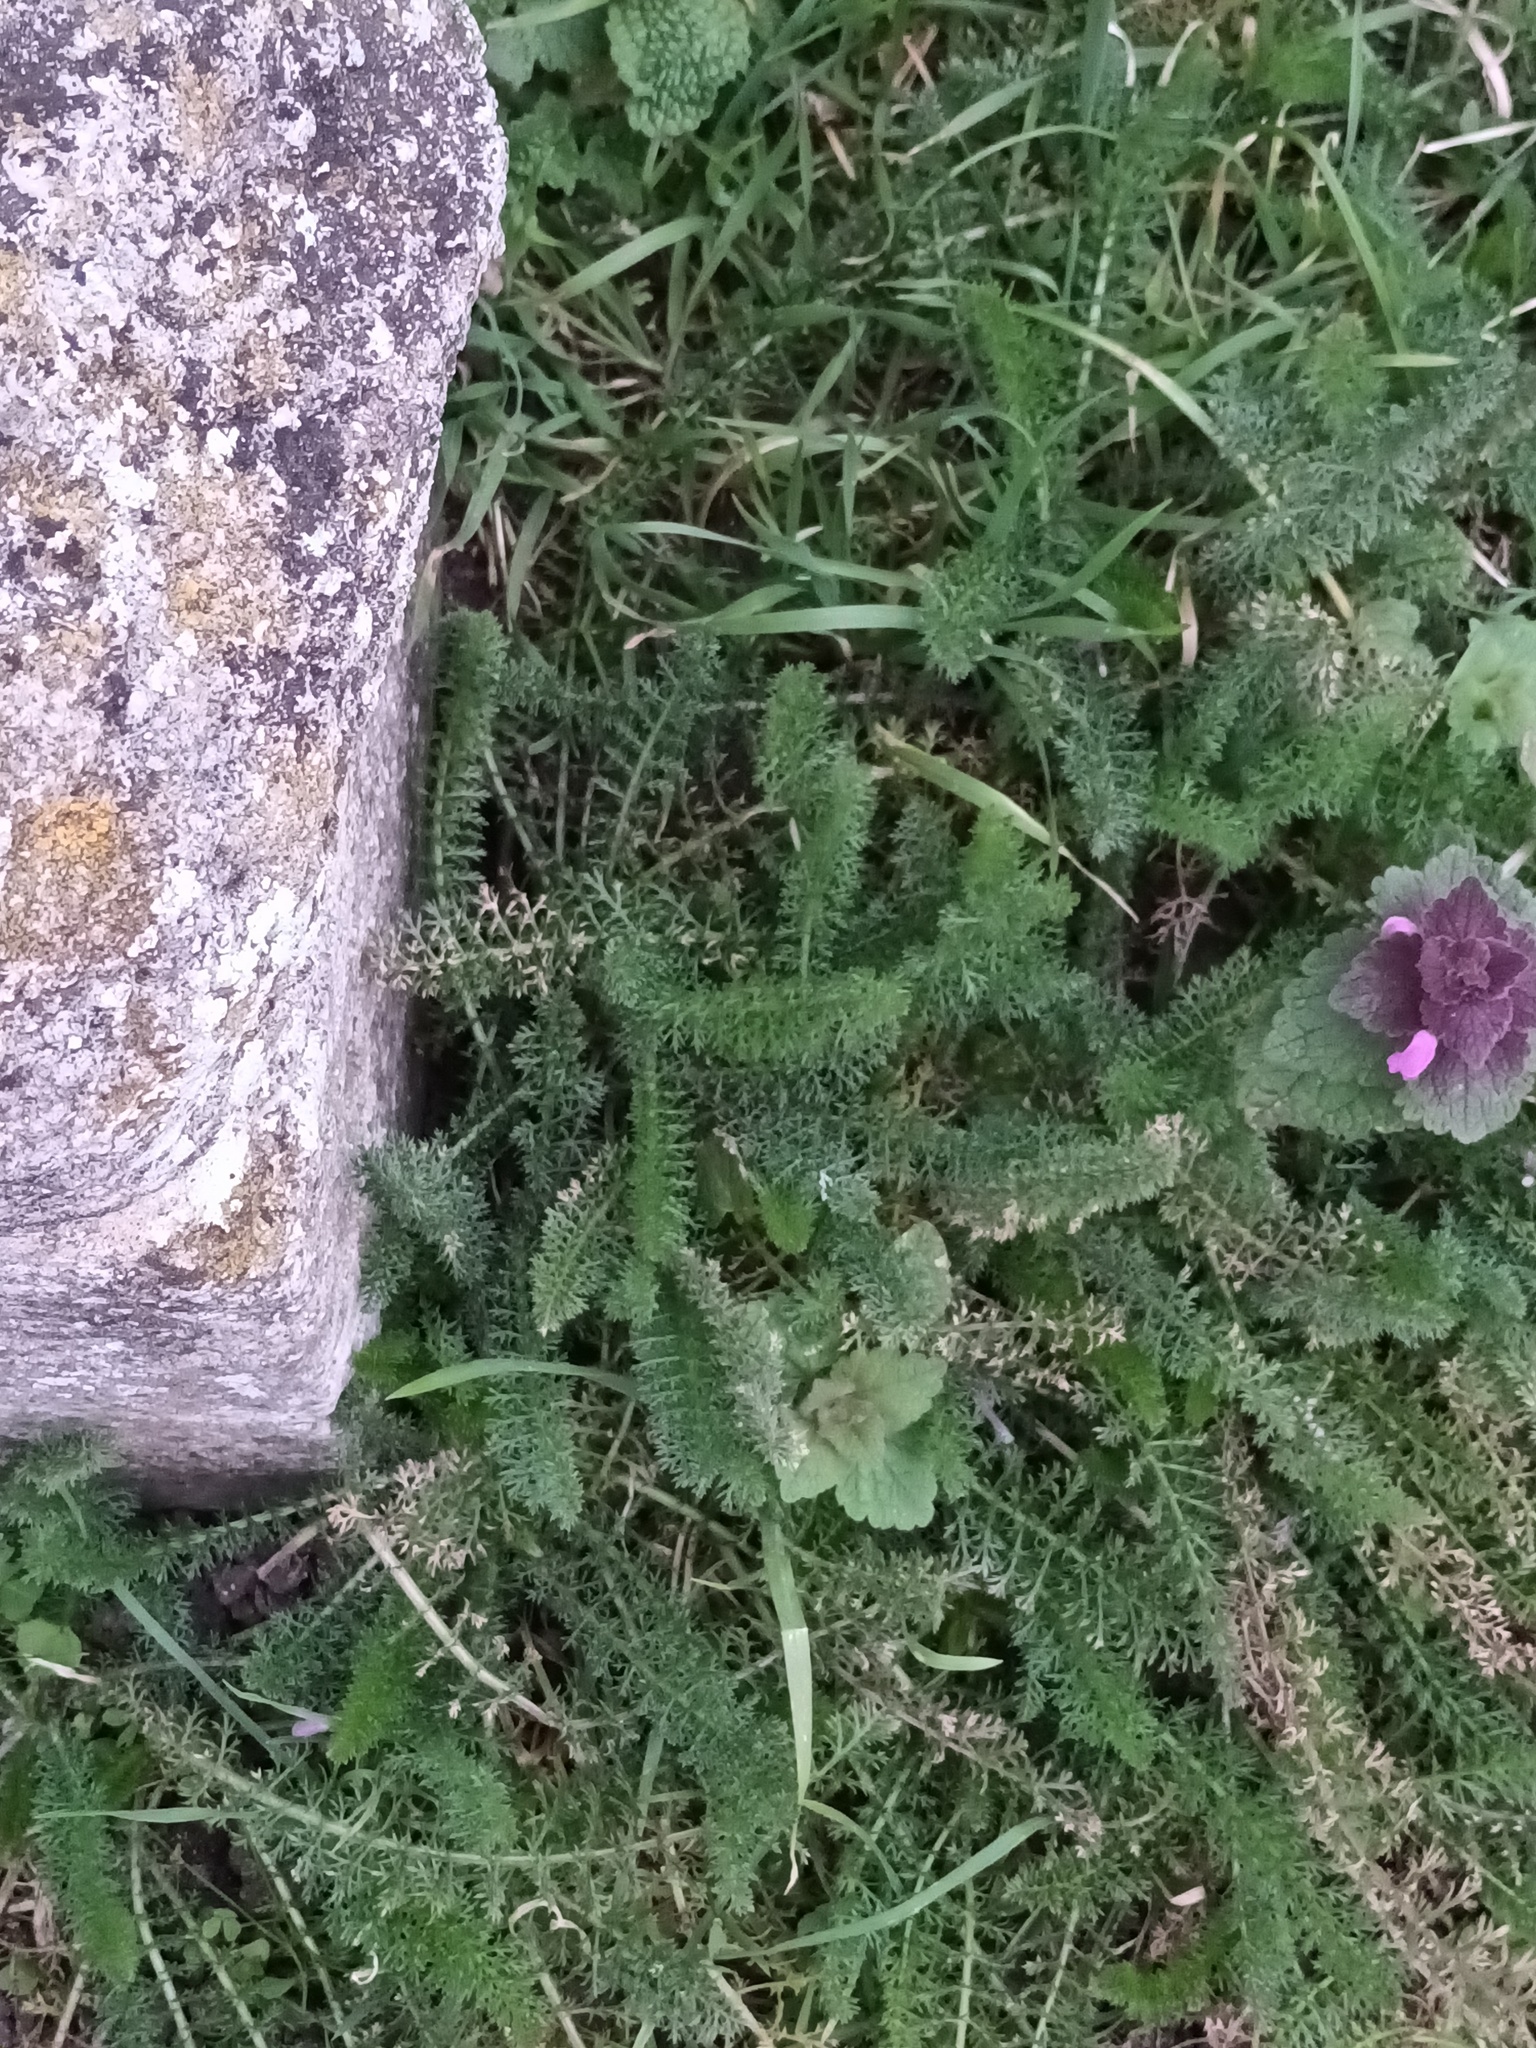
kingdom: Plantae
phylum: Tracheophyta
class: Magnoliopsida
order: Asterales
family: Asteraceae
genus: Achillea
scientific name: Achillea millefolium
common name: Yarrow
